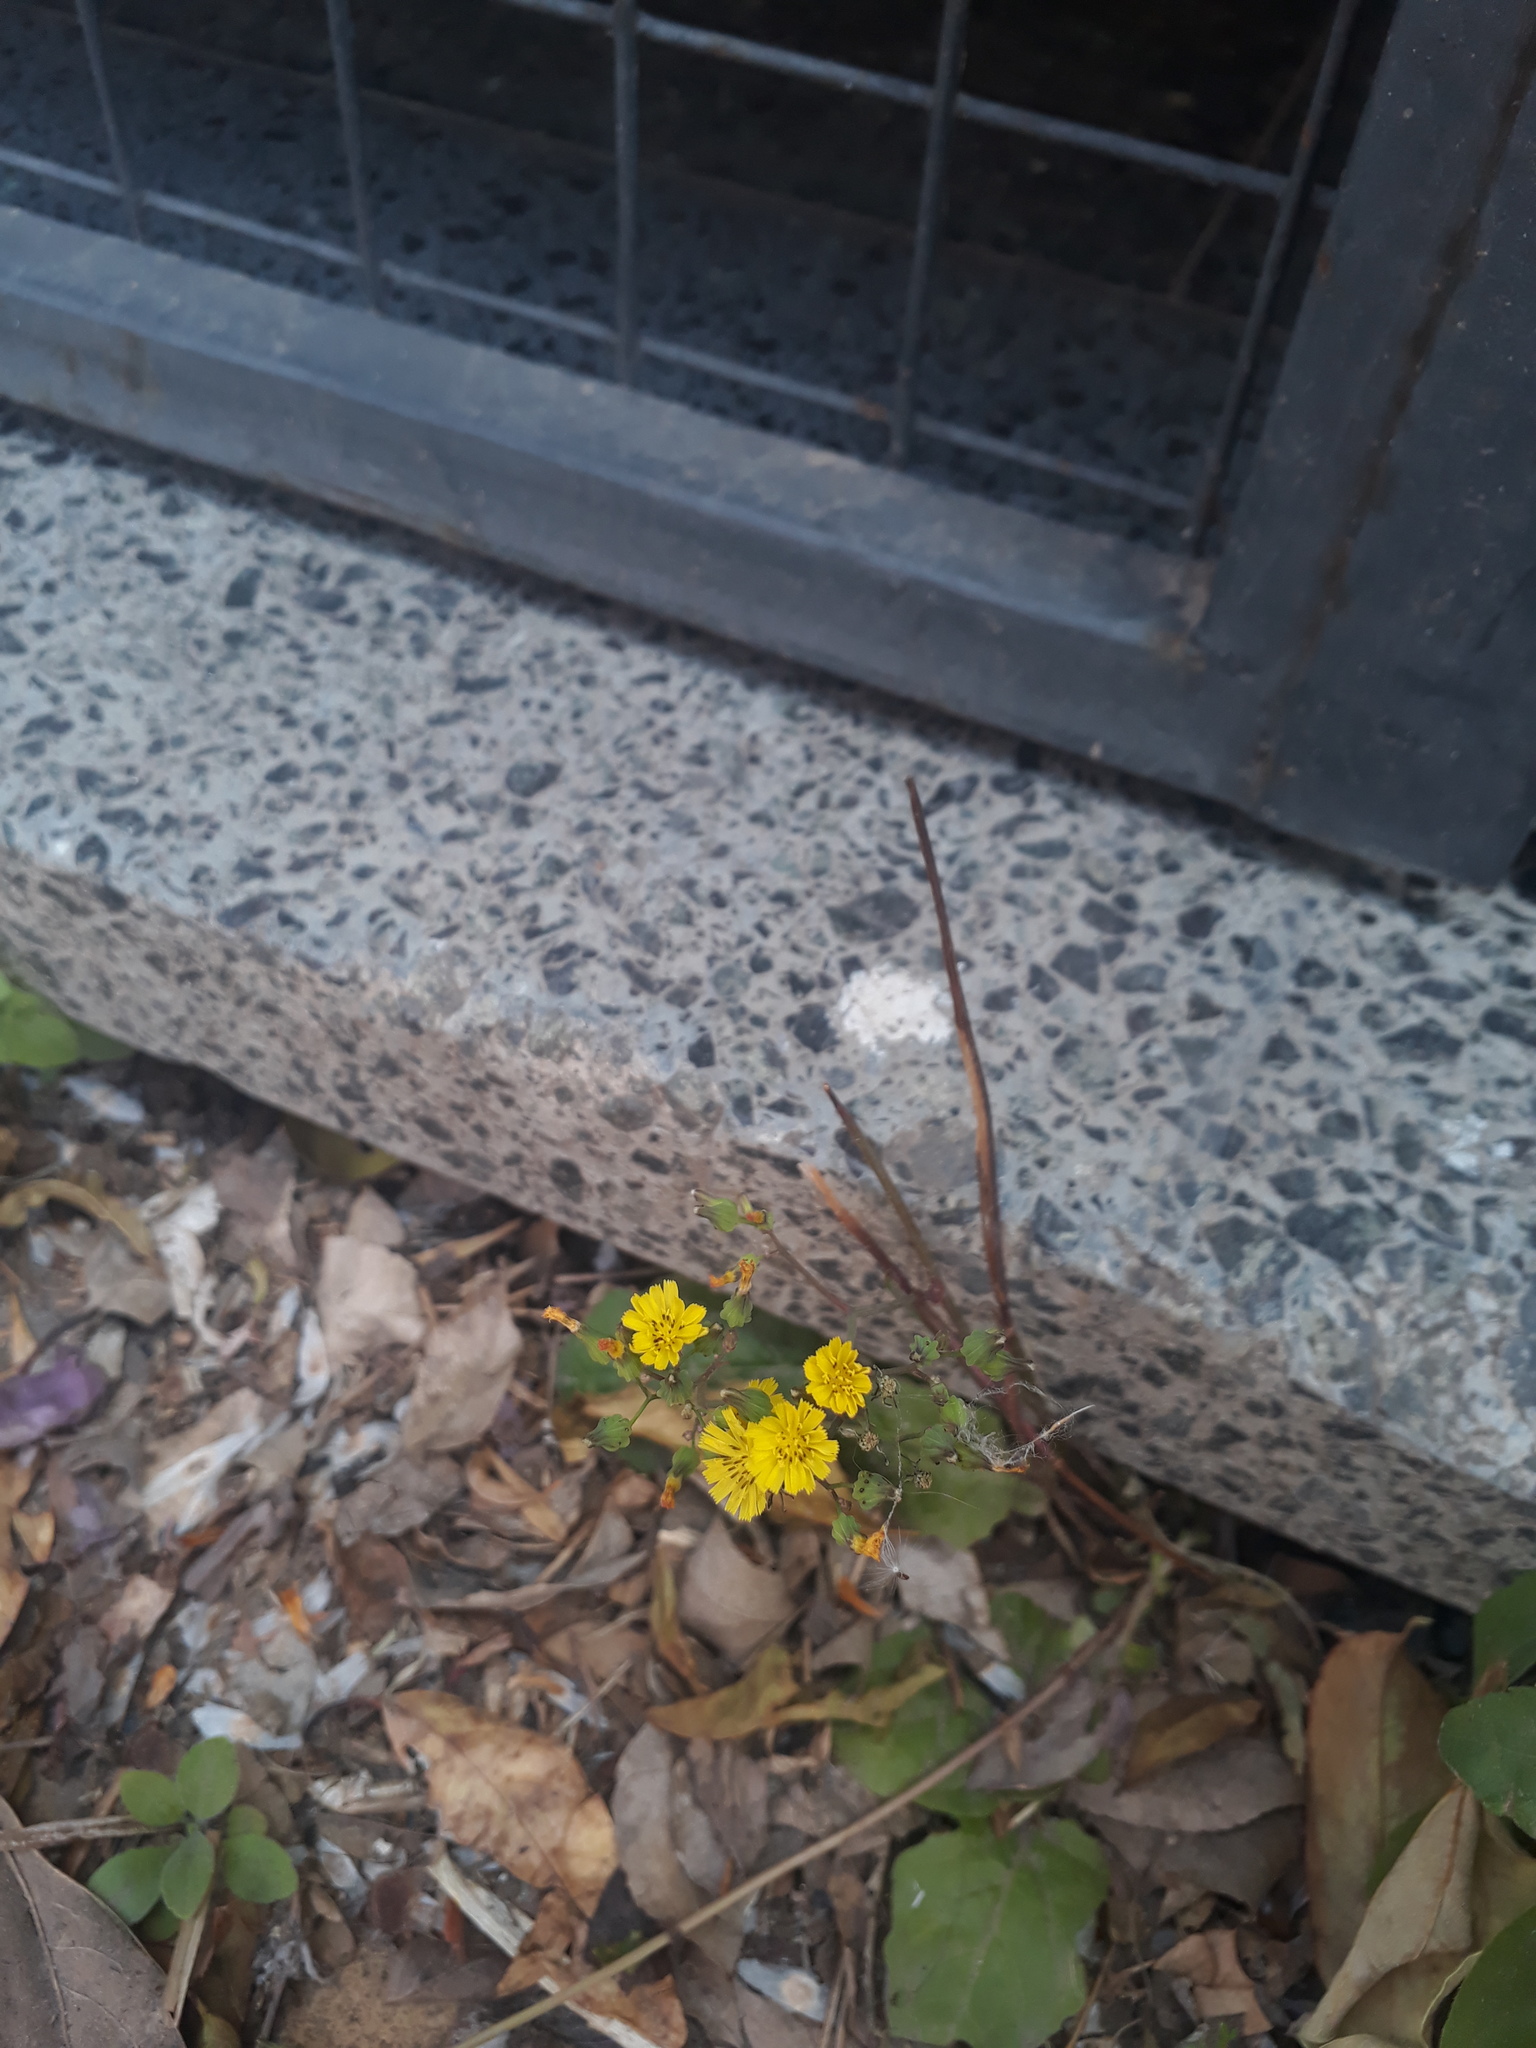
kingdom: Plantae
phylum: Tracheophyta
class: Magnoliopsida
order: Asterales
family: Asteraceae
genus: Youngia
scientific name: Youngia japonica
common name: Oriental false hawksbeard
